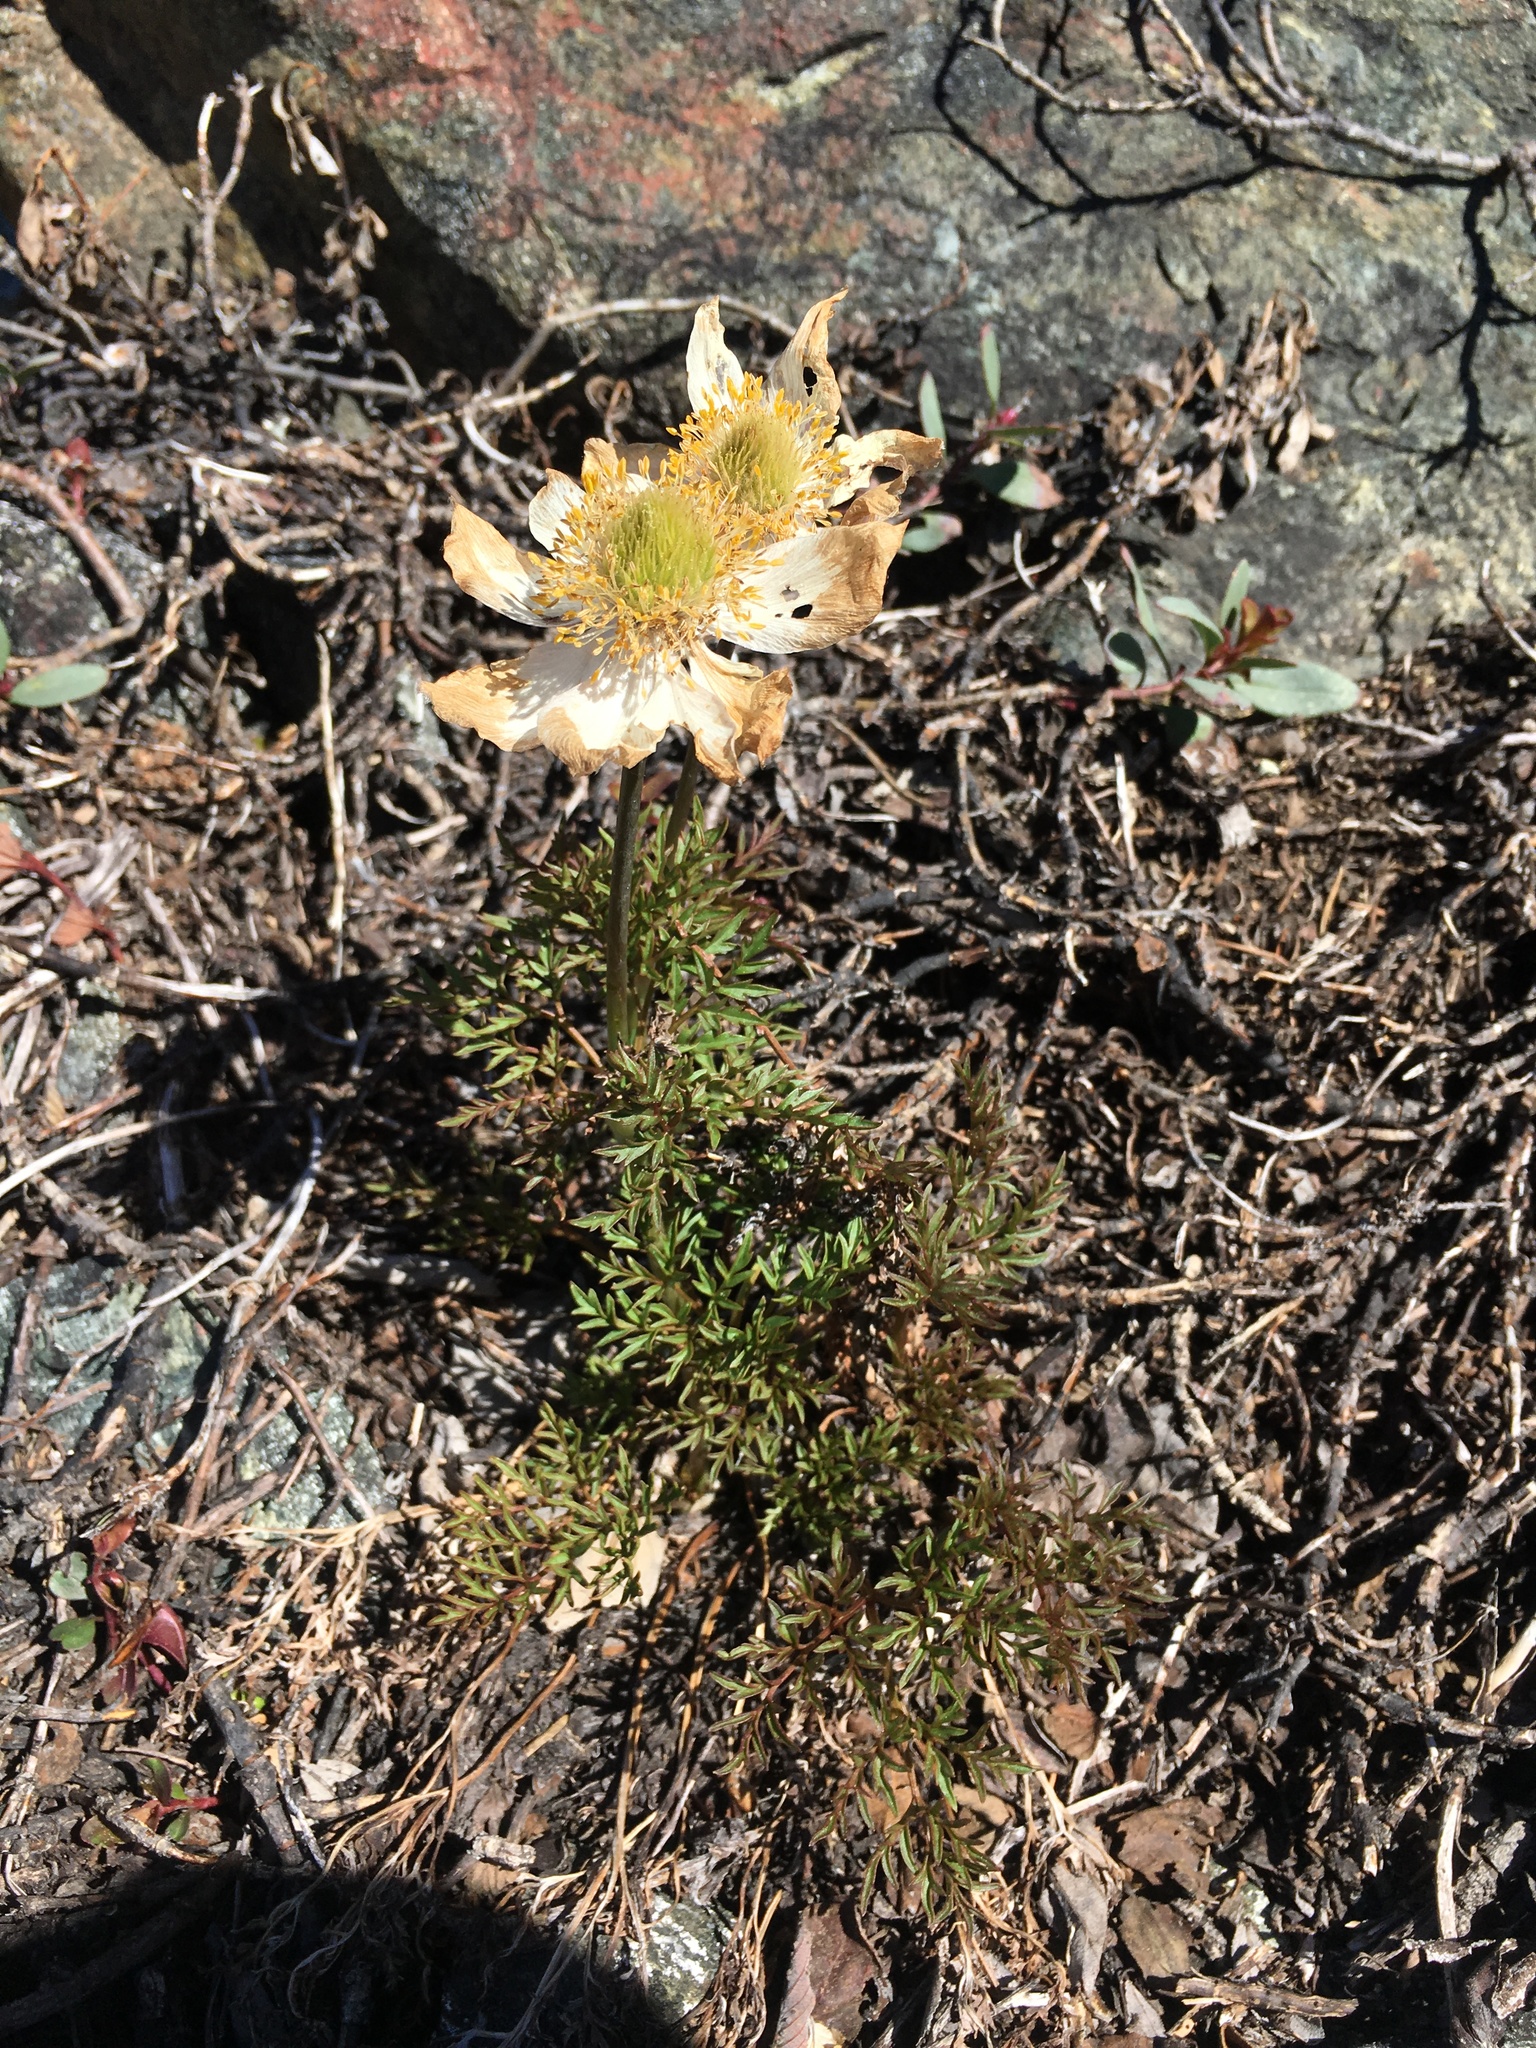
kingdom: Plantae
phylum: Tracheophyta
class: Magnoliopsida
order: Ranunculales
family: Ranunculaceae
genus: Pulsatilla
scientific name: Pulsatilla occidentalis
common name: Mountain pasqueflower
